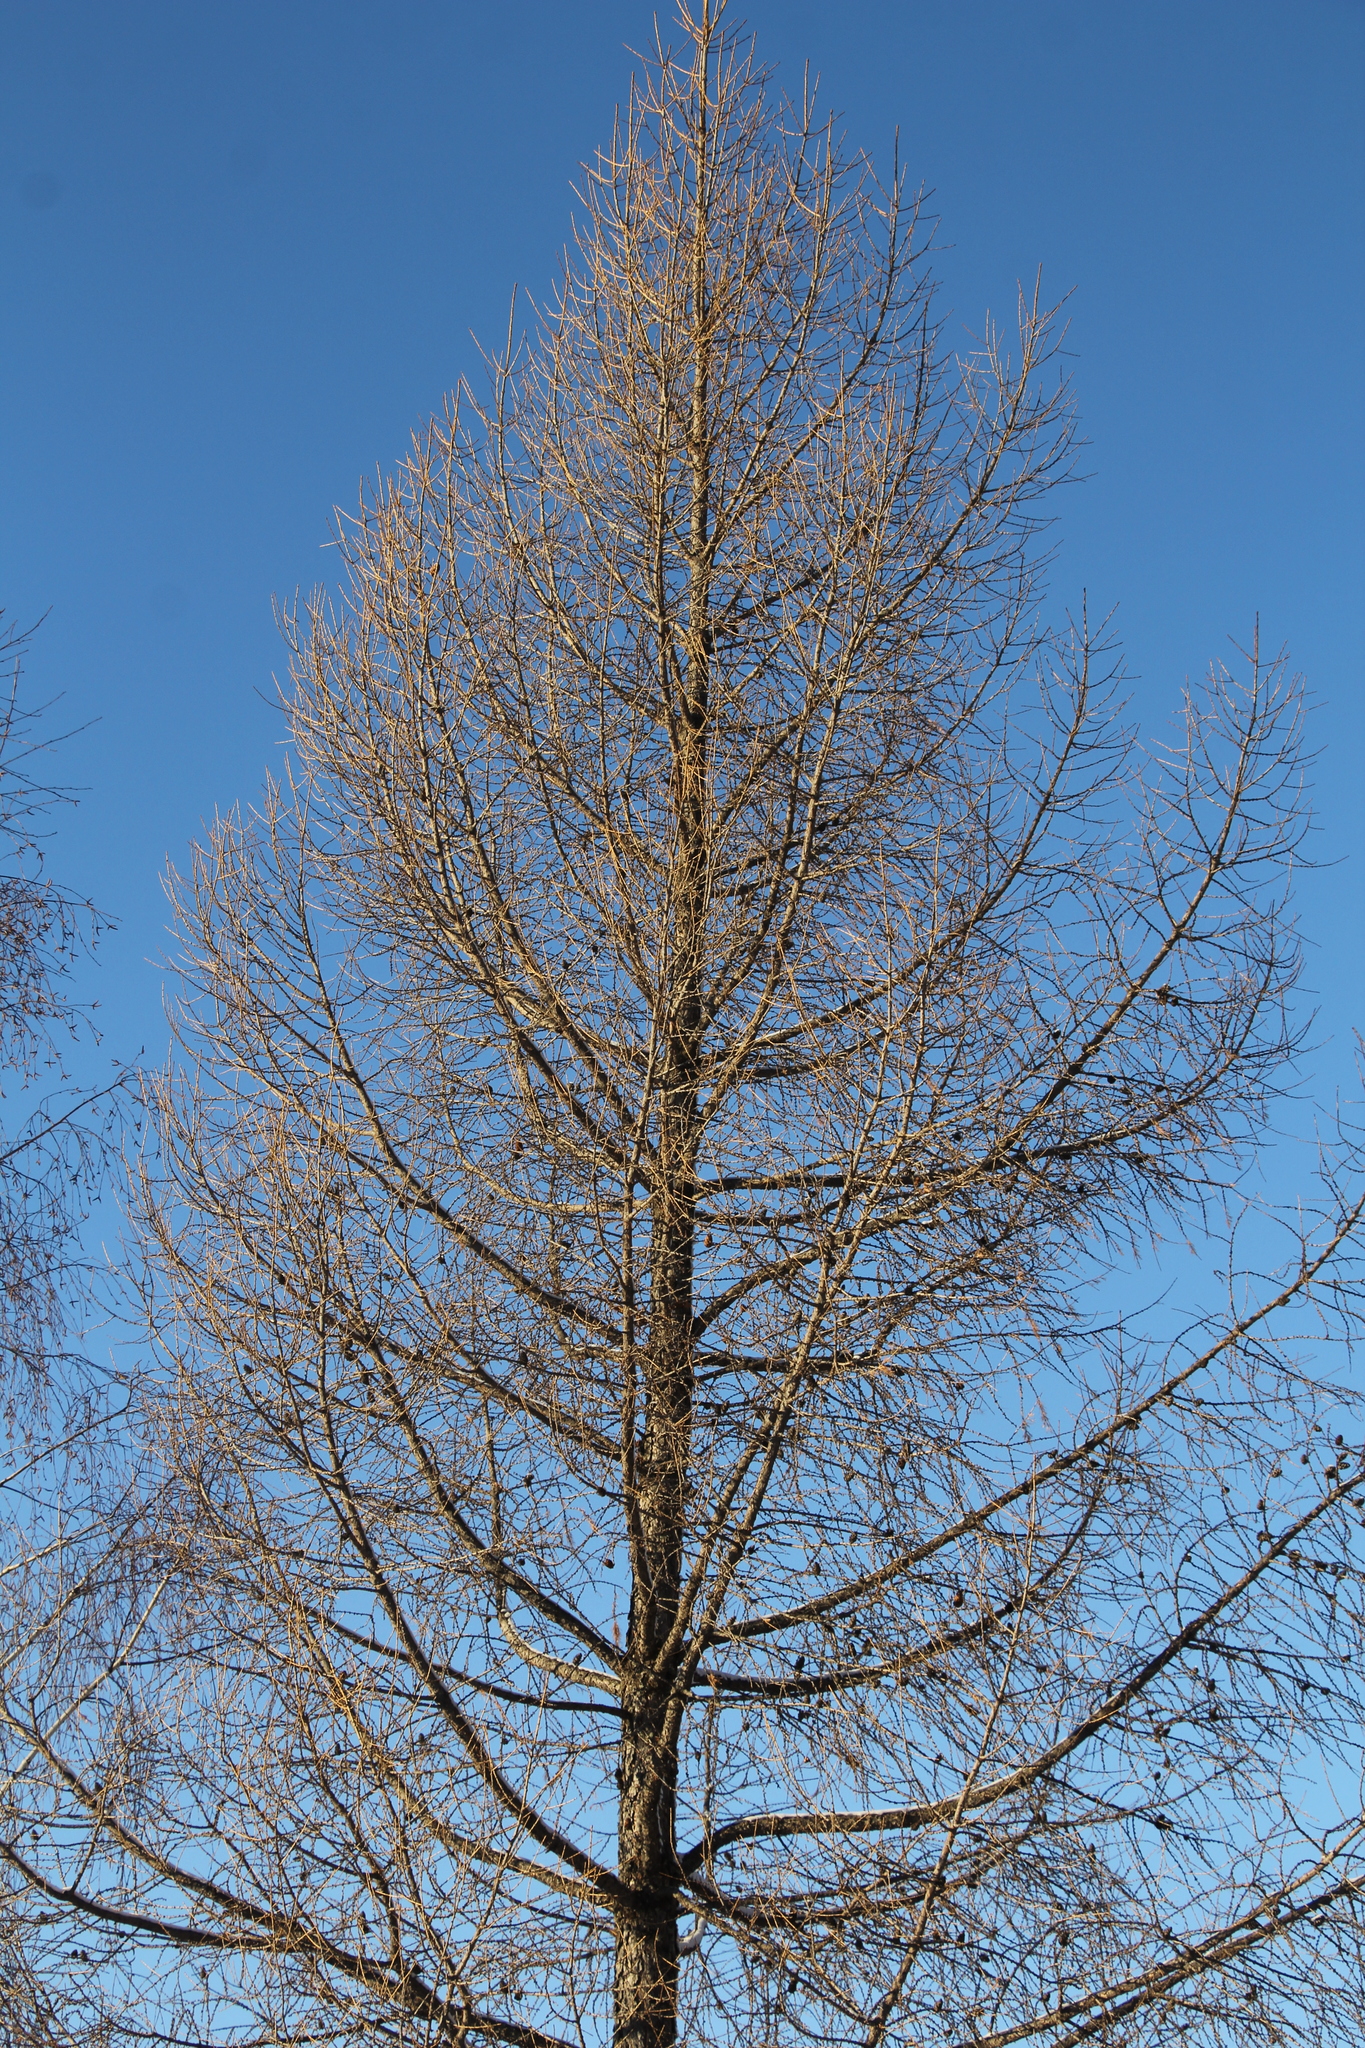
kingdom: Plantae
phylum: Tracheophyta
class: Pinopsida
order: Pinales
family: Pinaceae
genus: Larix
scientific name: Larix sibirica
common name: Siberian larch
